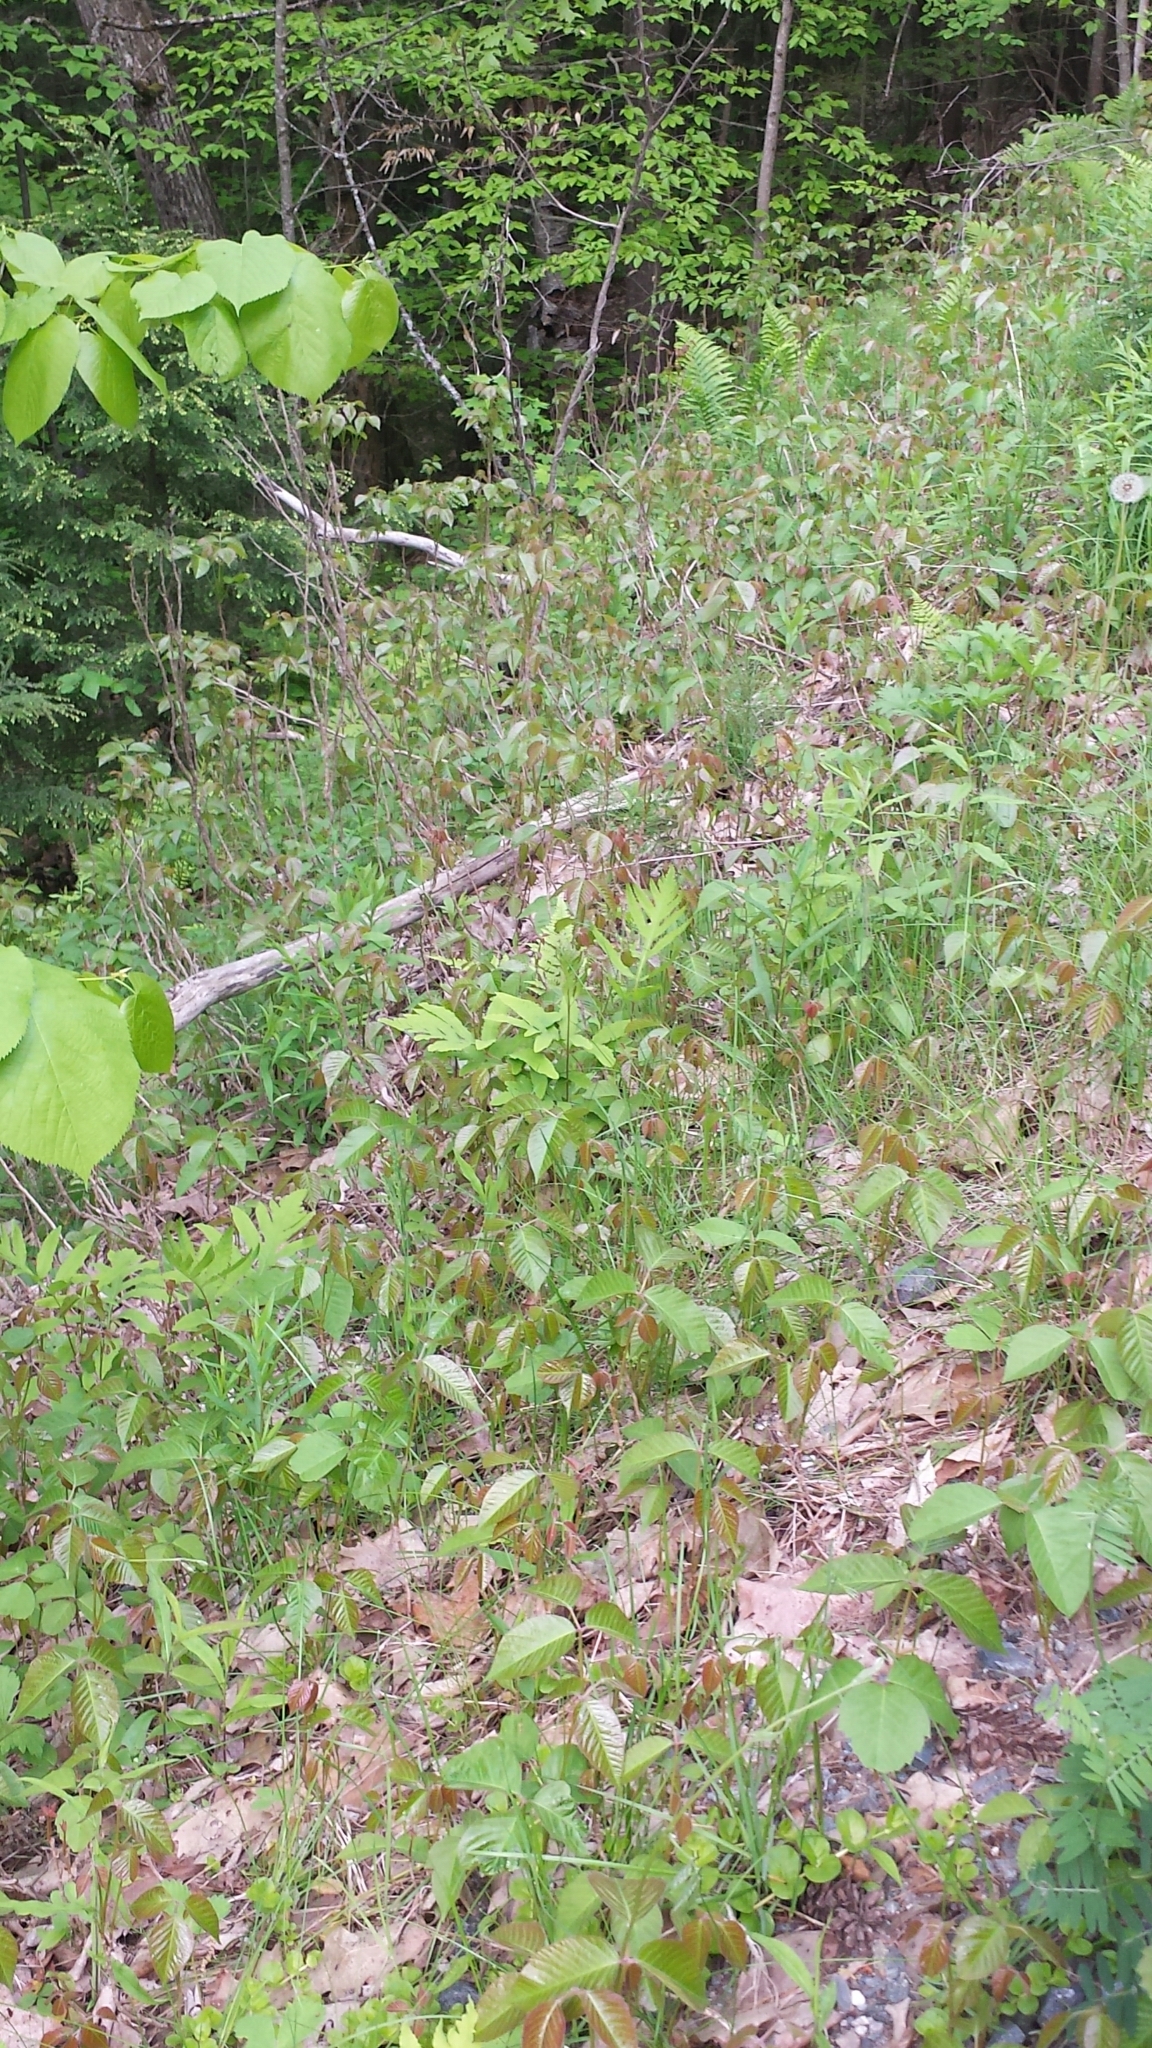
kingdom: Plantae
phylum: Tracheophyta
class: Magnoliopsida
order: Sapindales
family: Anacardiaceae
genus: Toxicodendron
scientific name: Toxicodendron rydbergii
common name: Rydberg's poison-ivy
